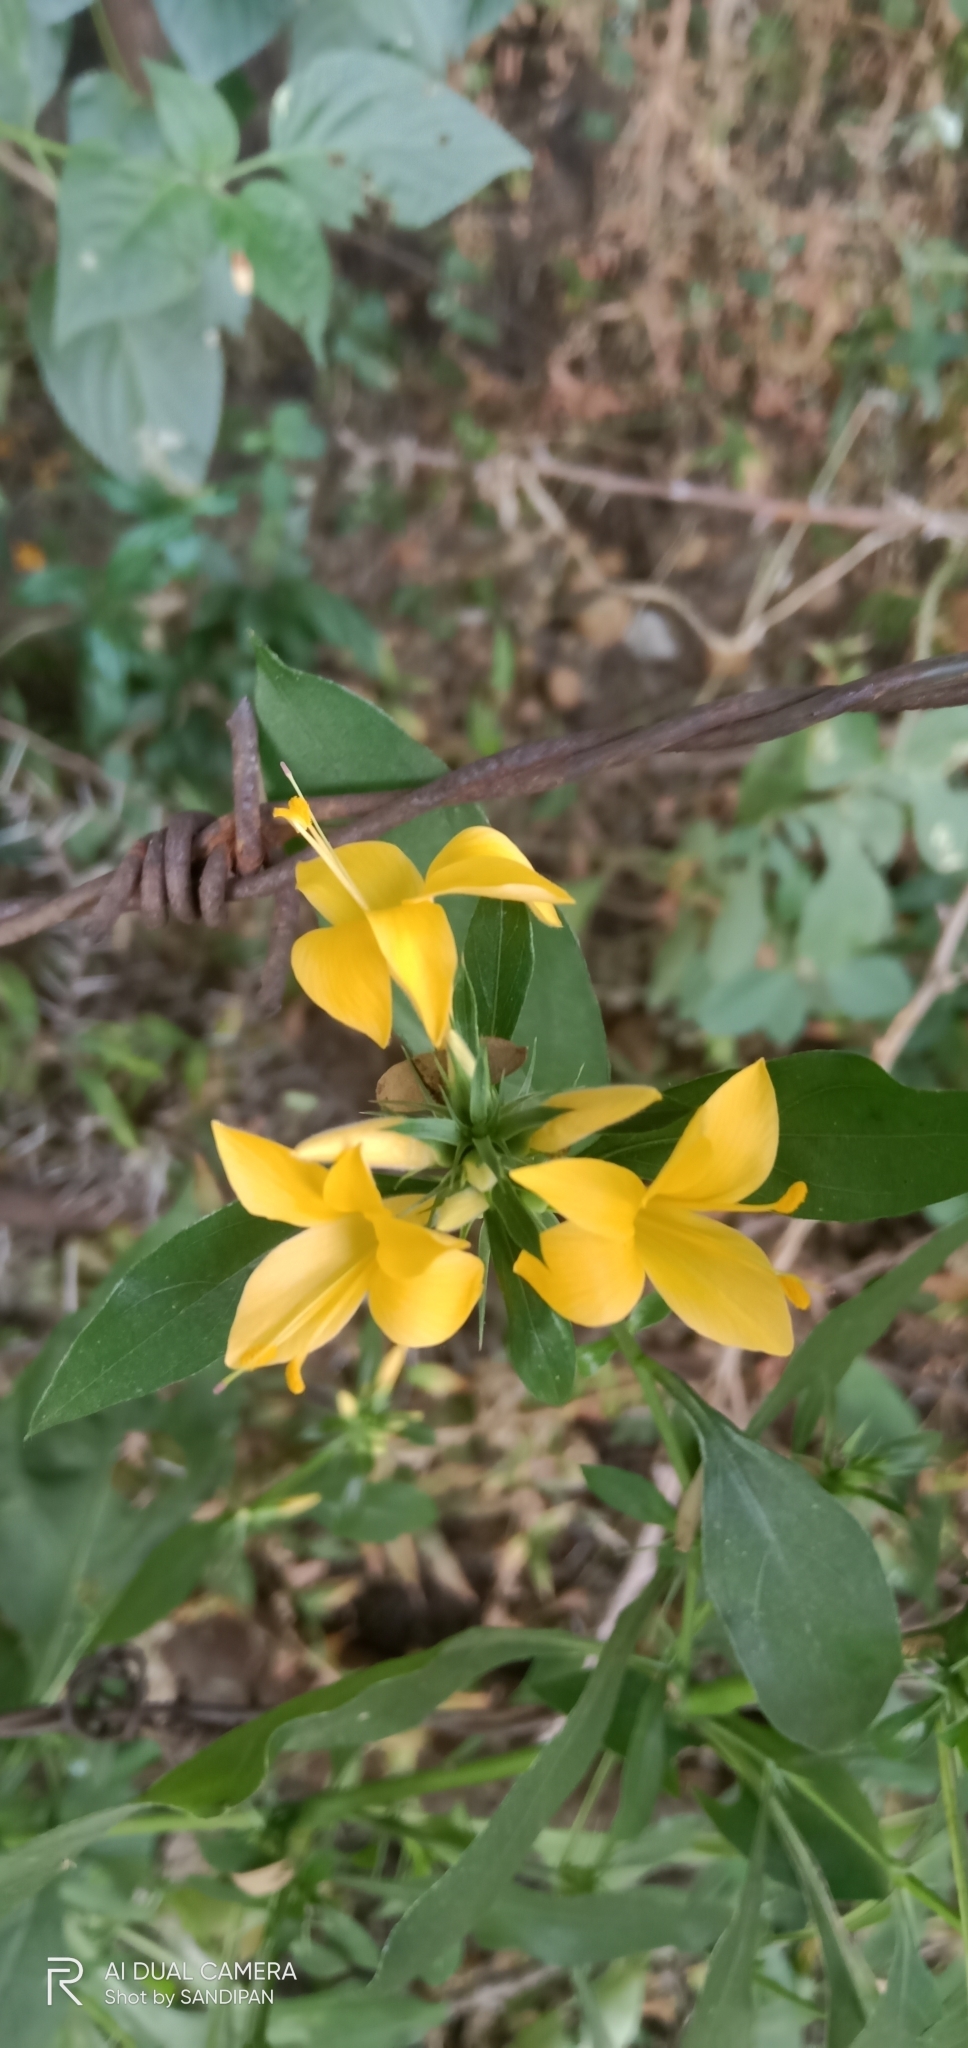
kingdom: Plantae
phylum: Tracheophyta
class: Magnoliopsida
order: Lamiales
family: Acanthaceae
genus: Barleria
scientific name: Barleria prionitis
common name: Barleria
